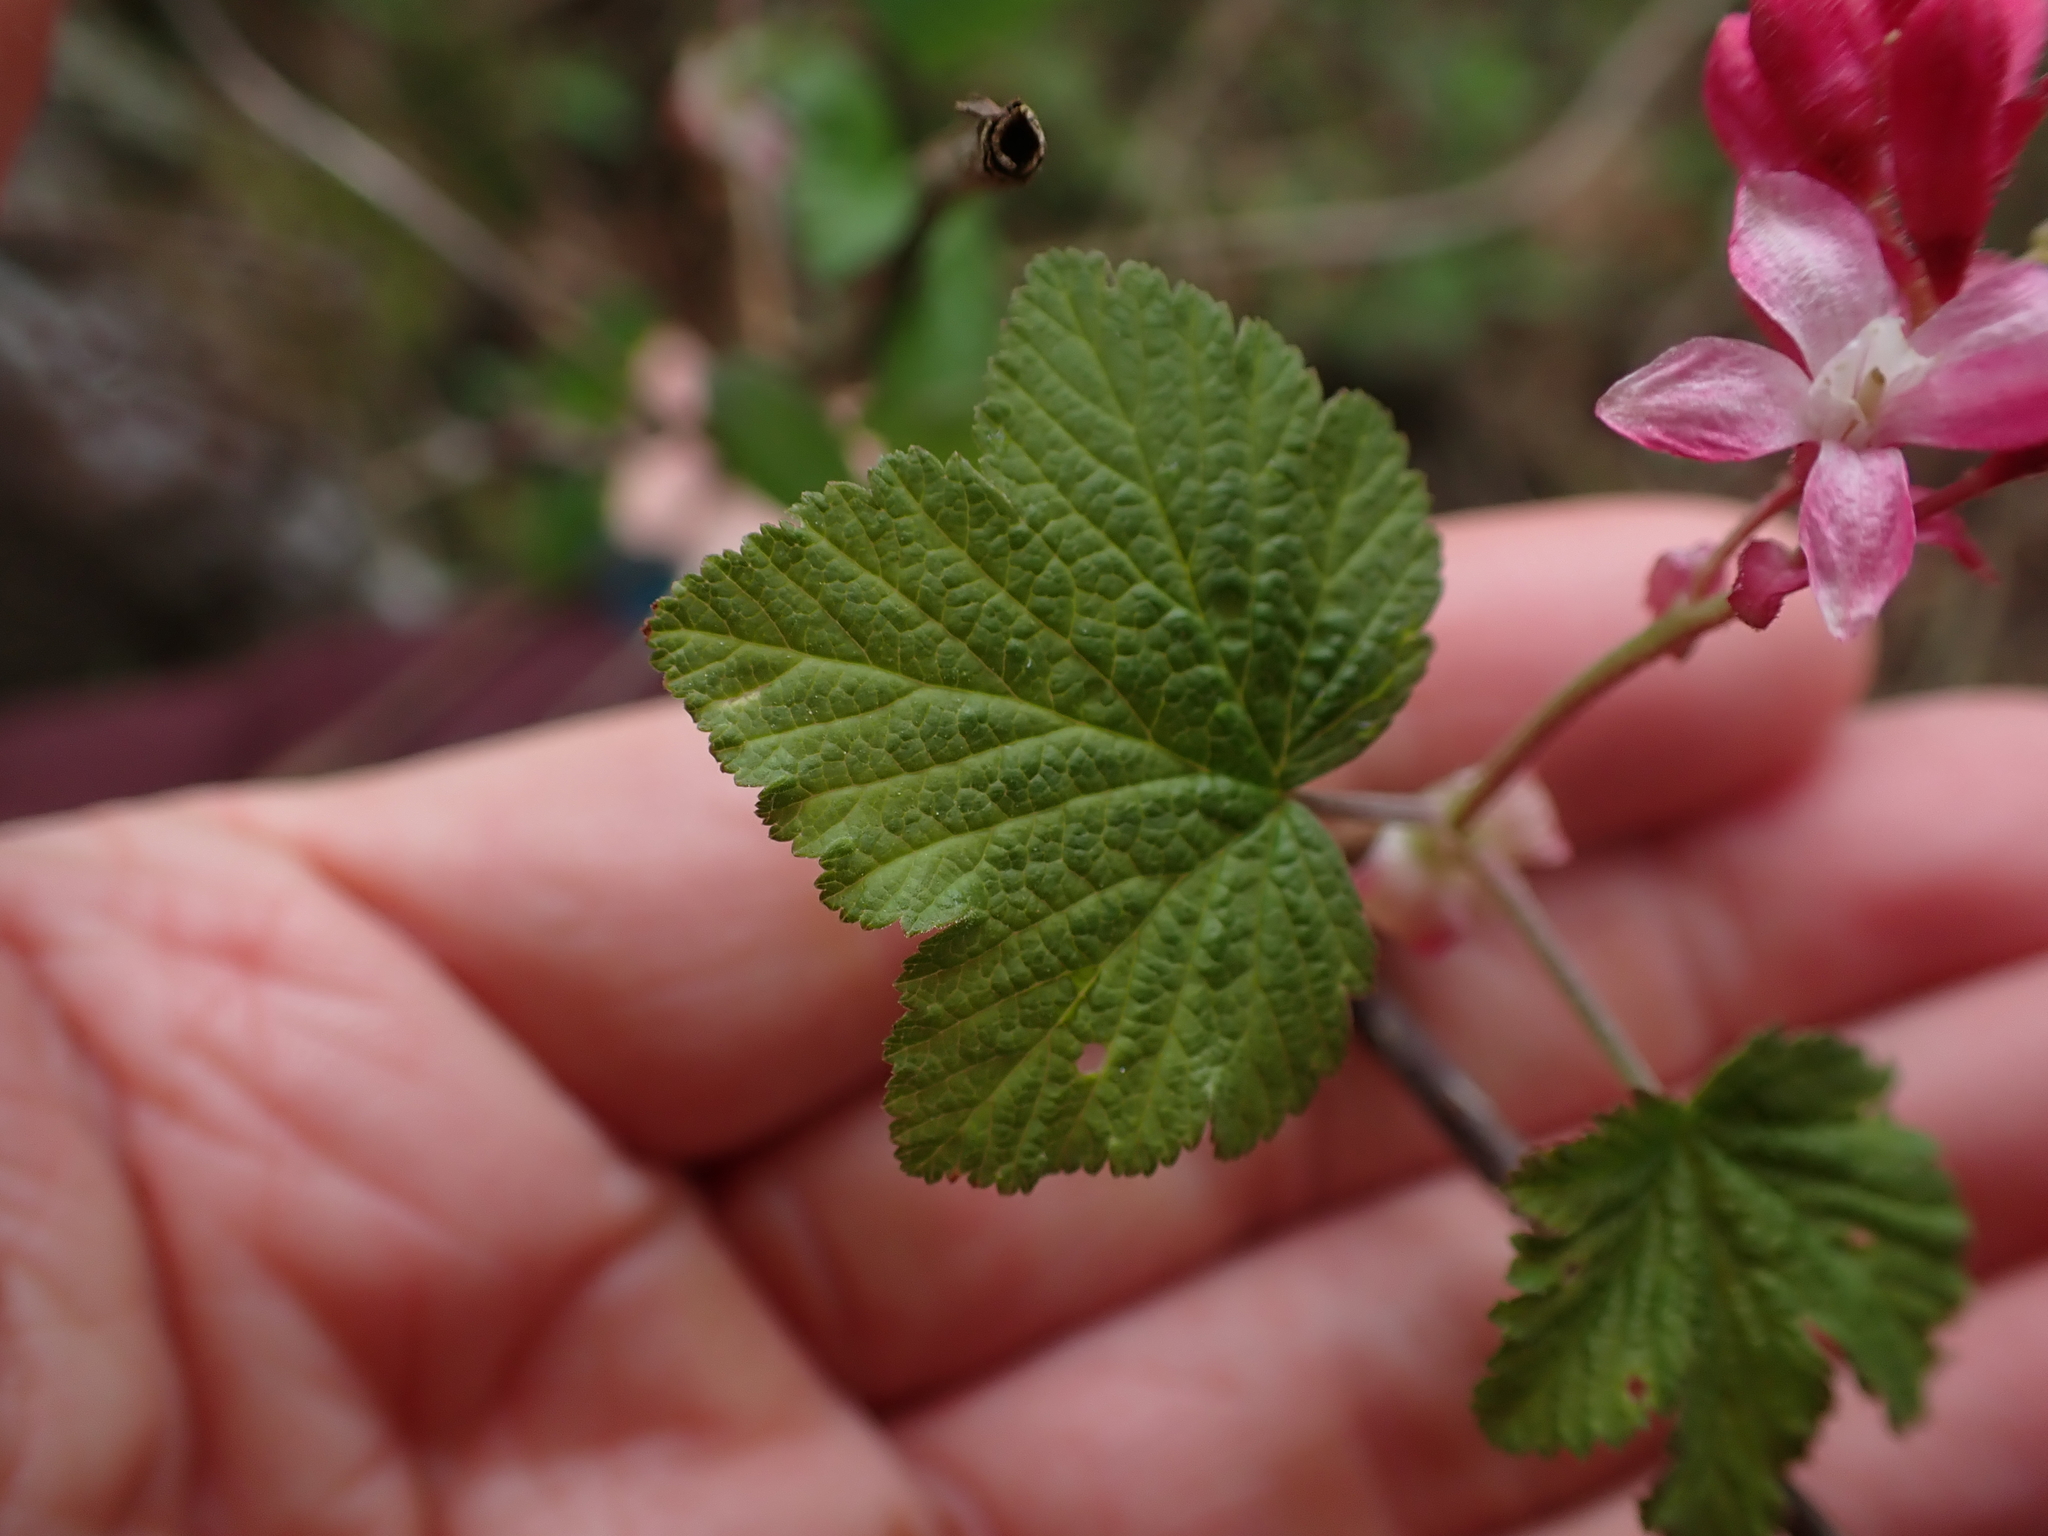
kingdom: Plantae
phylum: Tracheophyta
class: Magnoliopsida
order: Saxifragales
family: Grossulariaceae
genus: Ribes
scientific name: Ribes sanguineum
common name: Flowering currant
